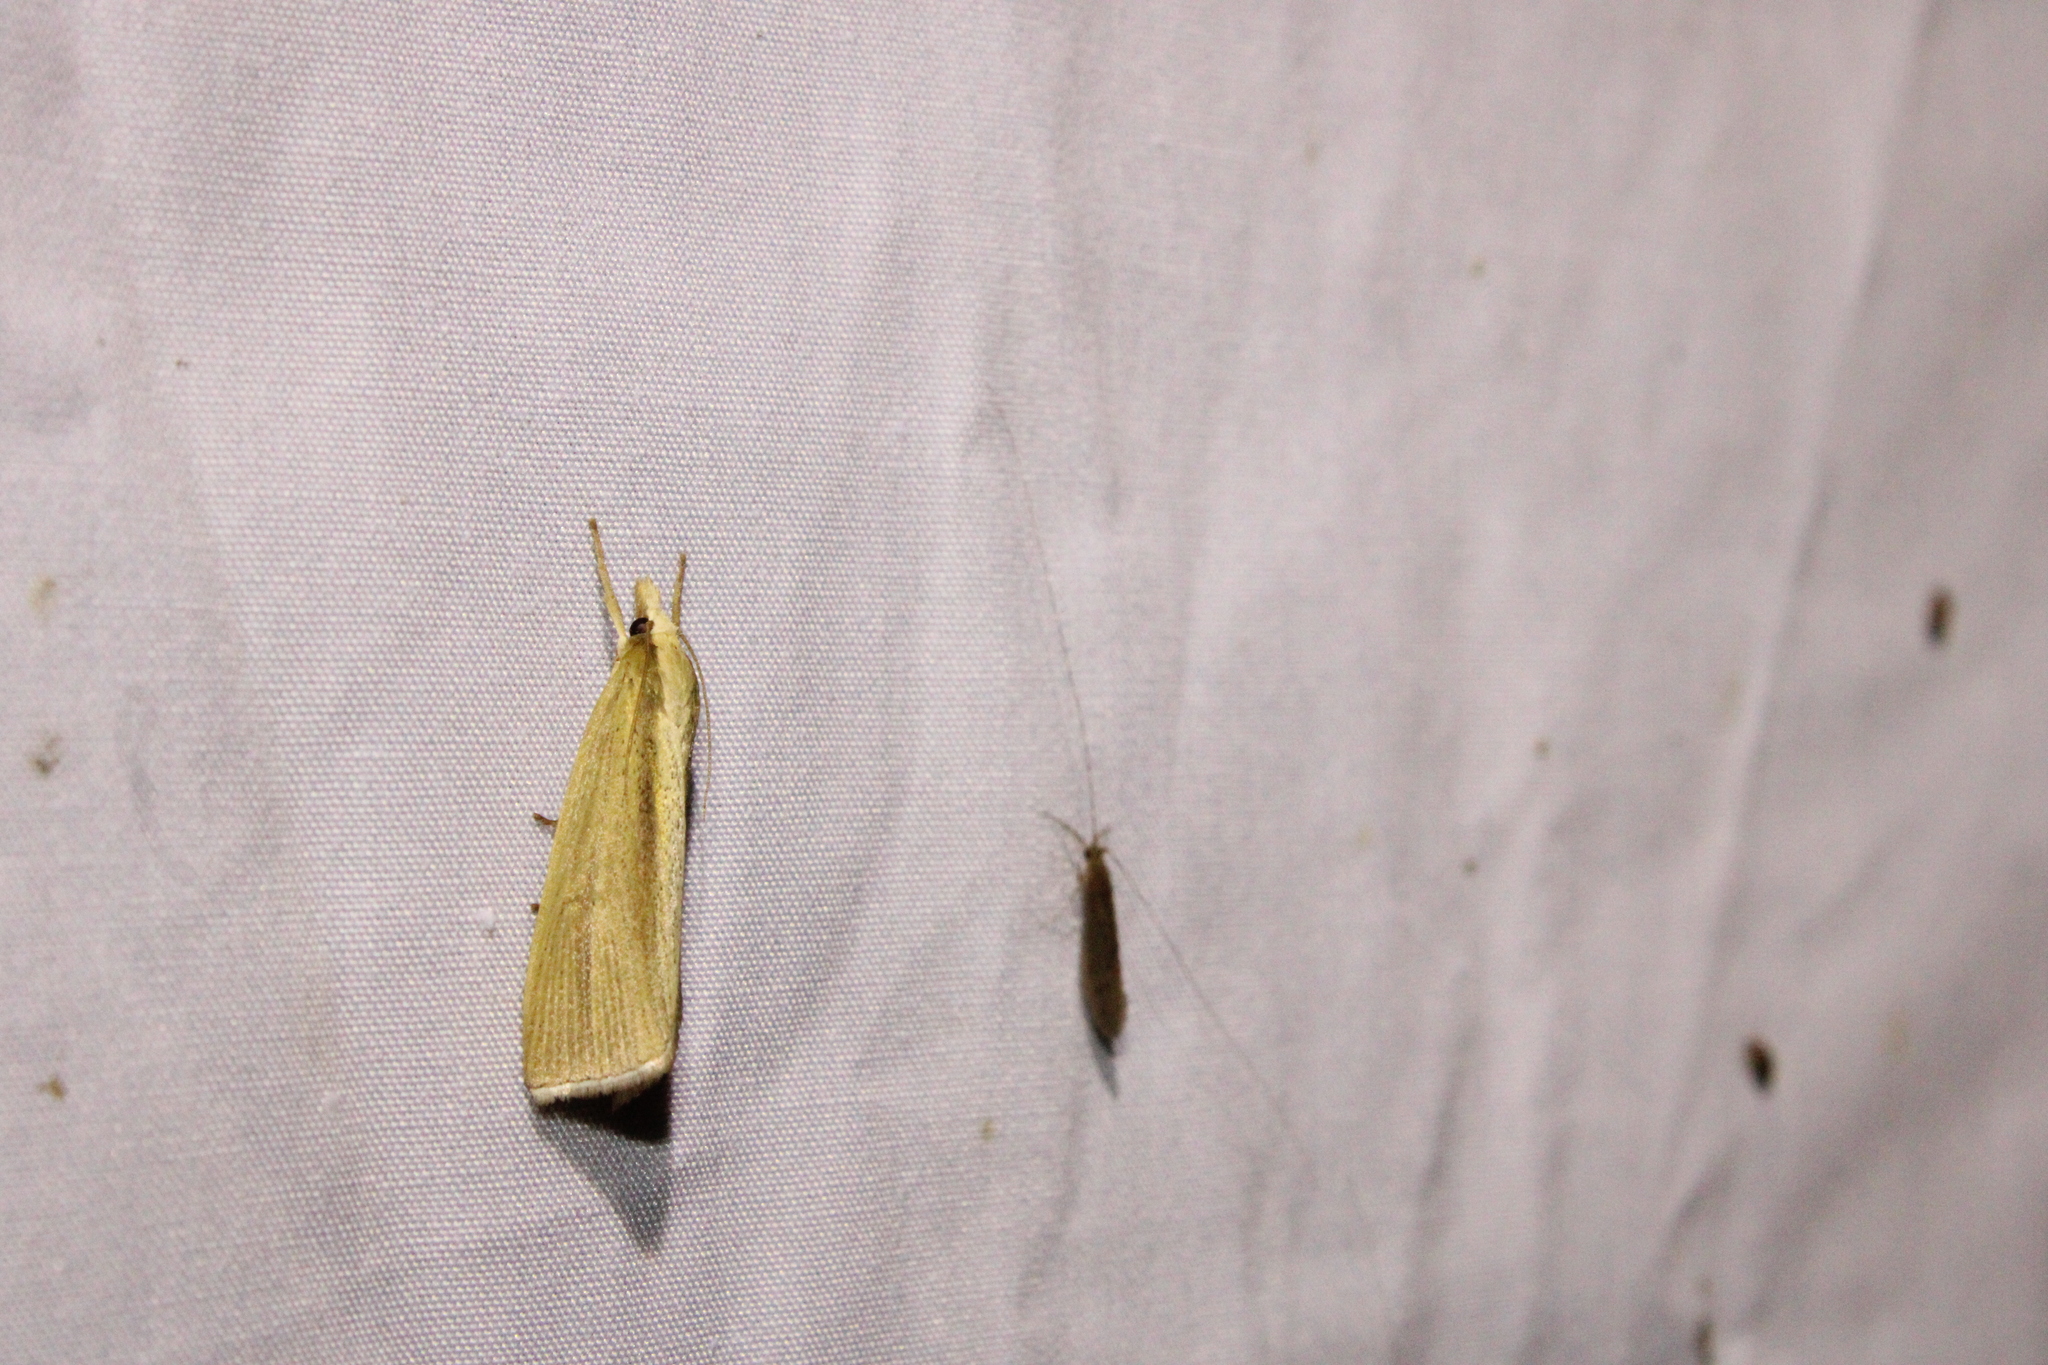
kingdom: Animalia
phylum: Arthropoda
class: Insecta
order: Lepidoptera
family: Crambidae
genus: Epina
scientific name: Epina alleni
